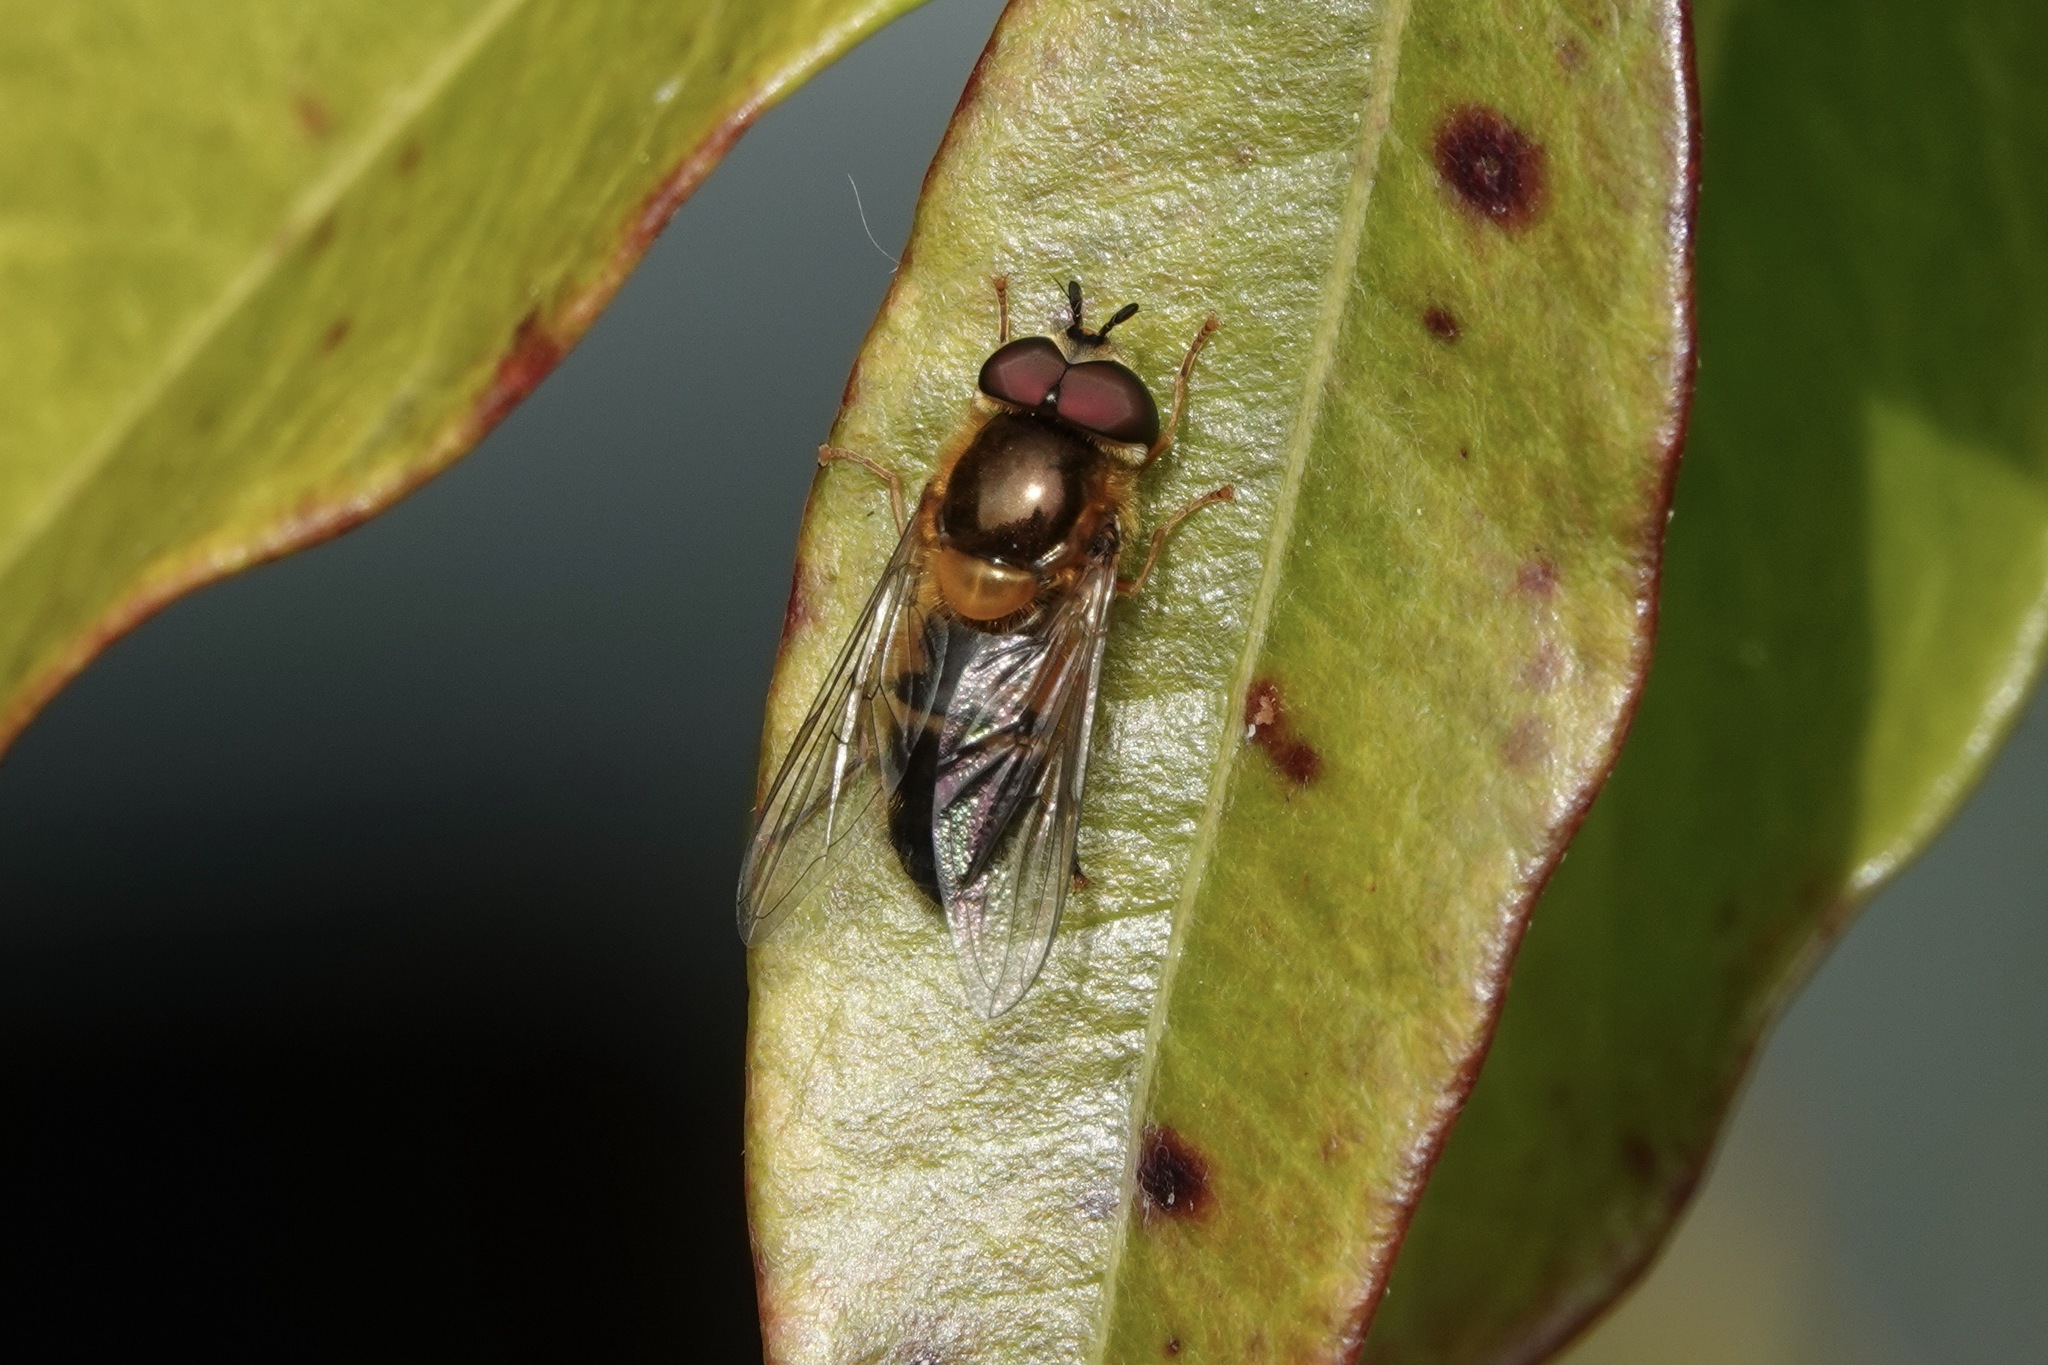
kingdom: Animalia
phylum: Arthropoda
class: Insecta
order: Diptera
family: Syrphidae
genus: Epistrophe
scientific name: Epistrophe eligans
